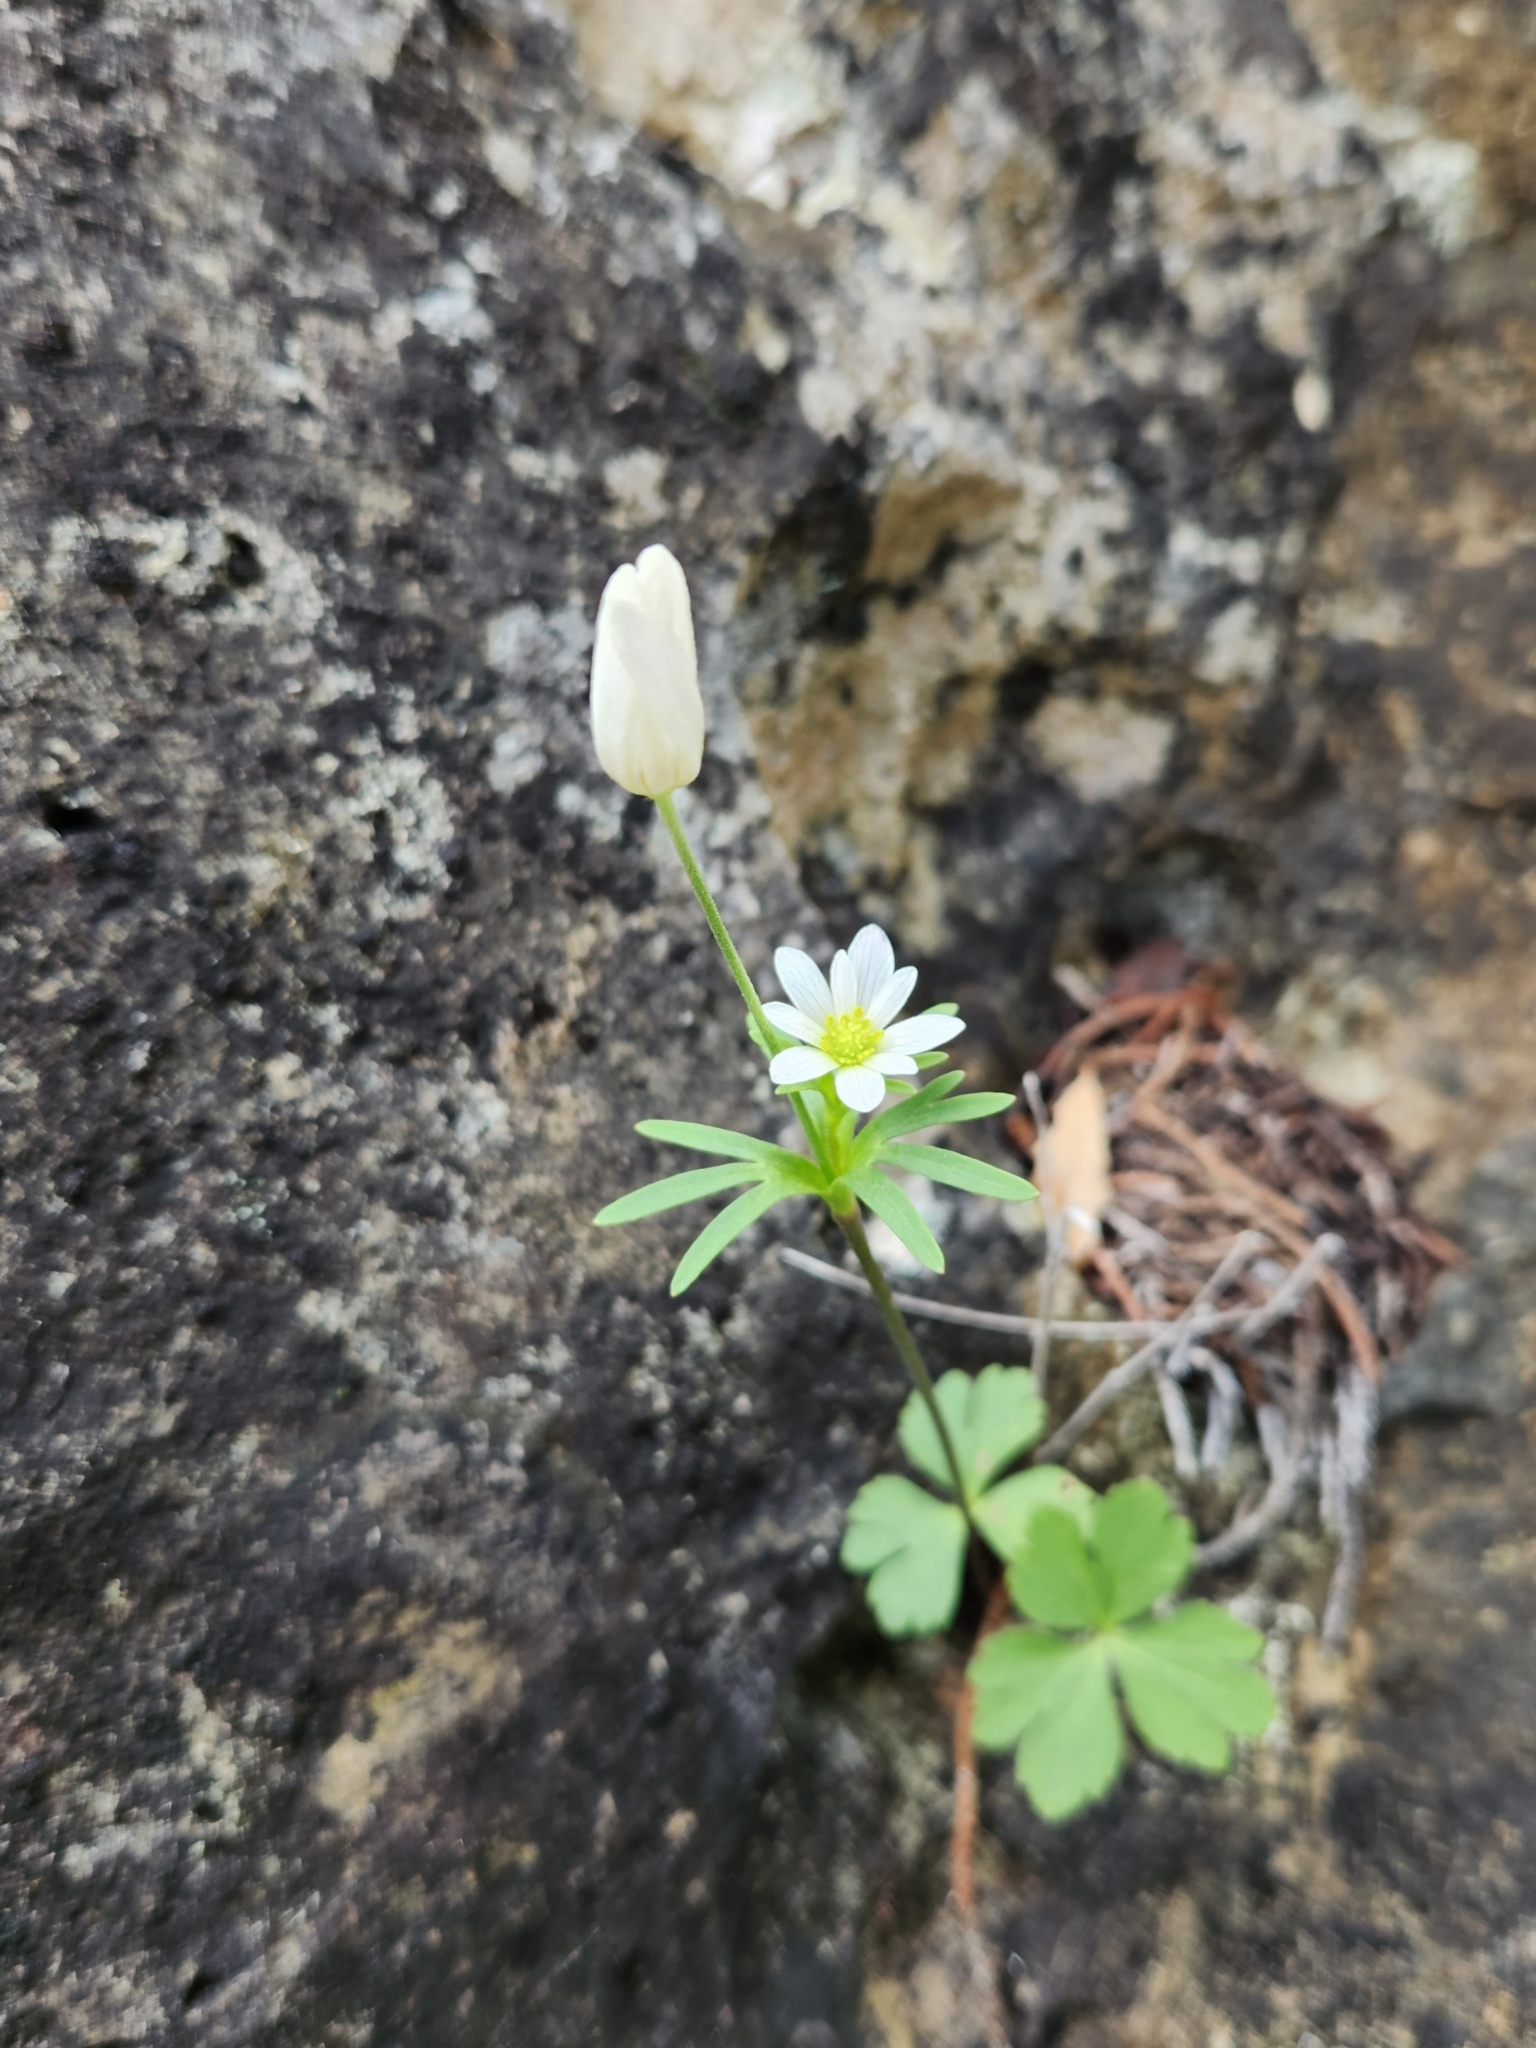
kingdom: Plantae
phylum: Tracheophyta
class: Magnoliopsida
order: Ranunculales
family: Ranunculaceae
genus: Anemone
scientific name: Anemone edwardsiana
